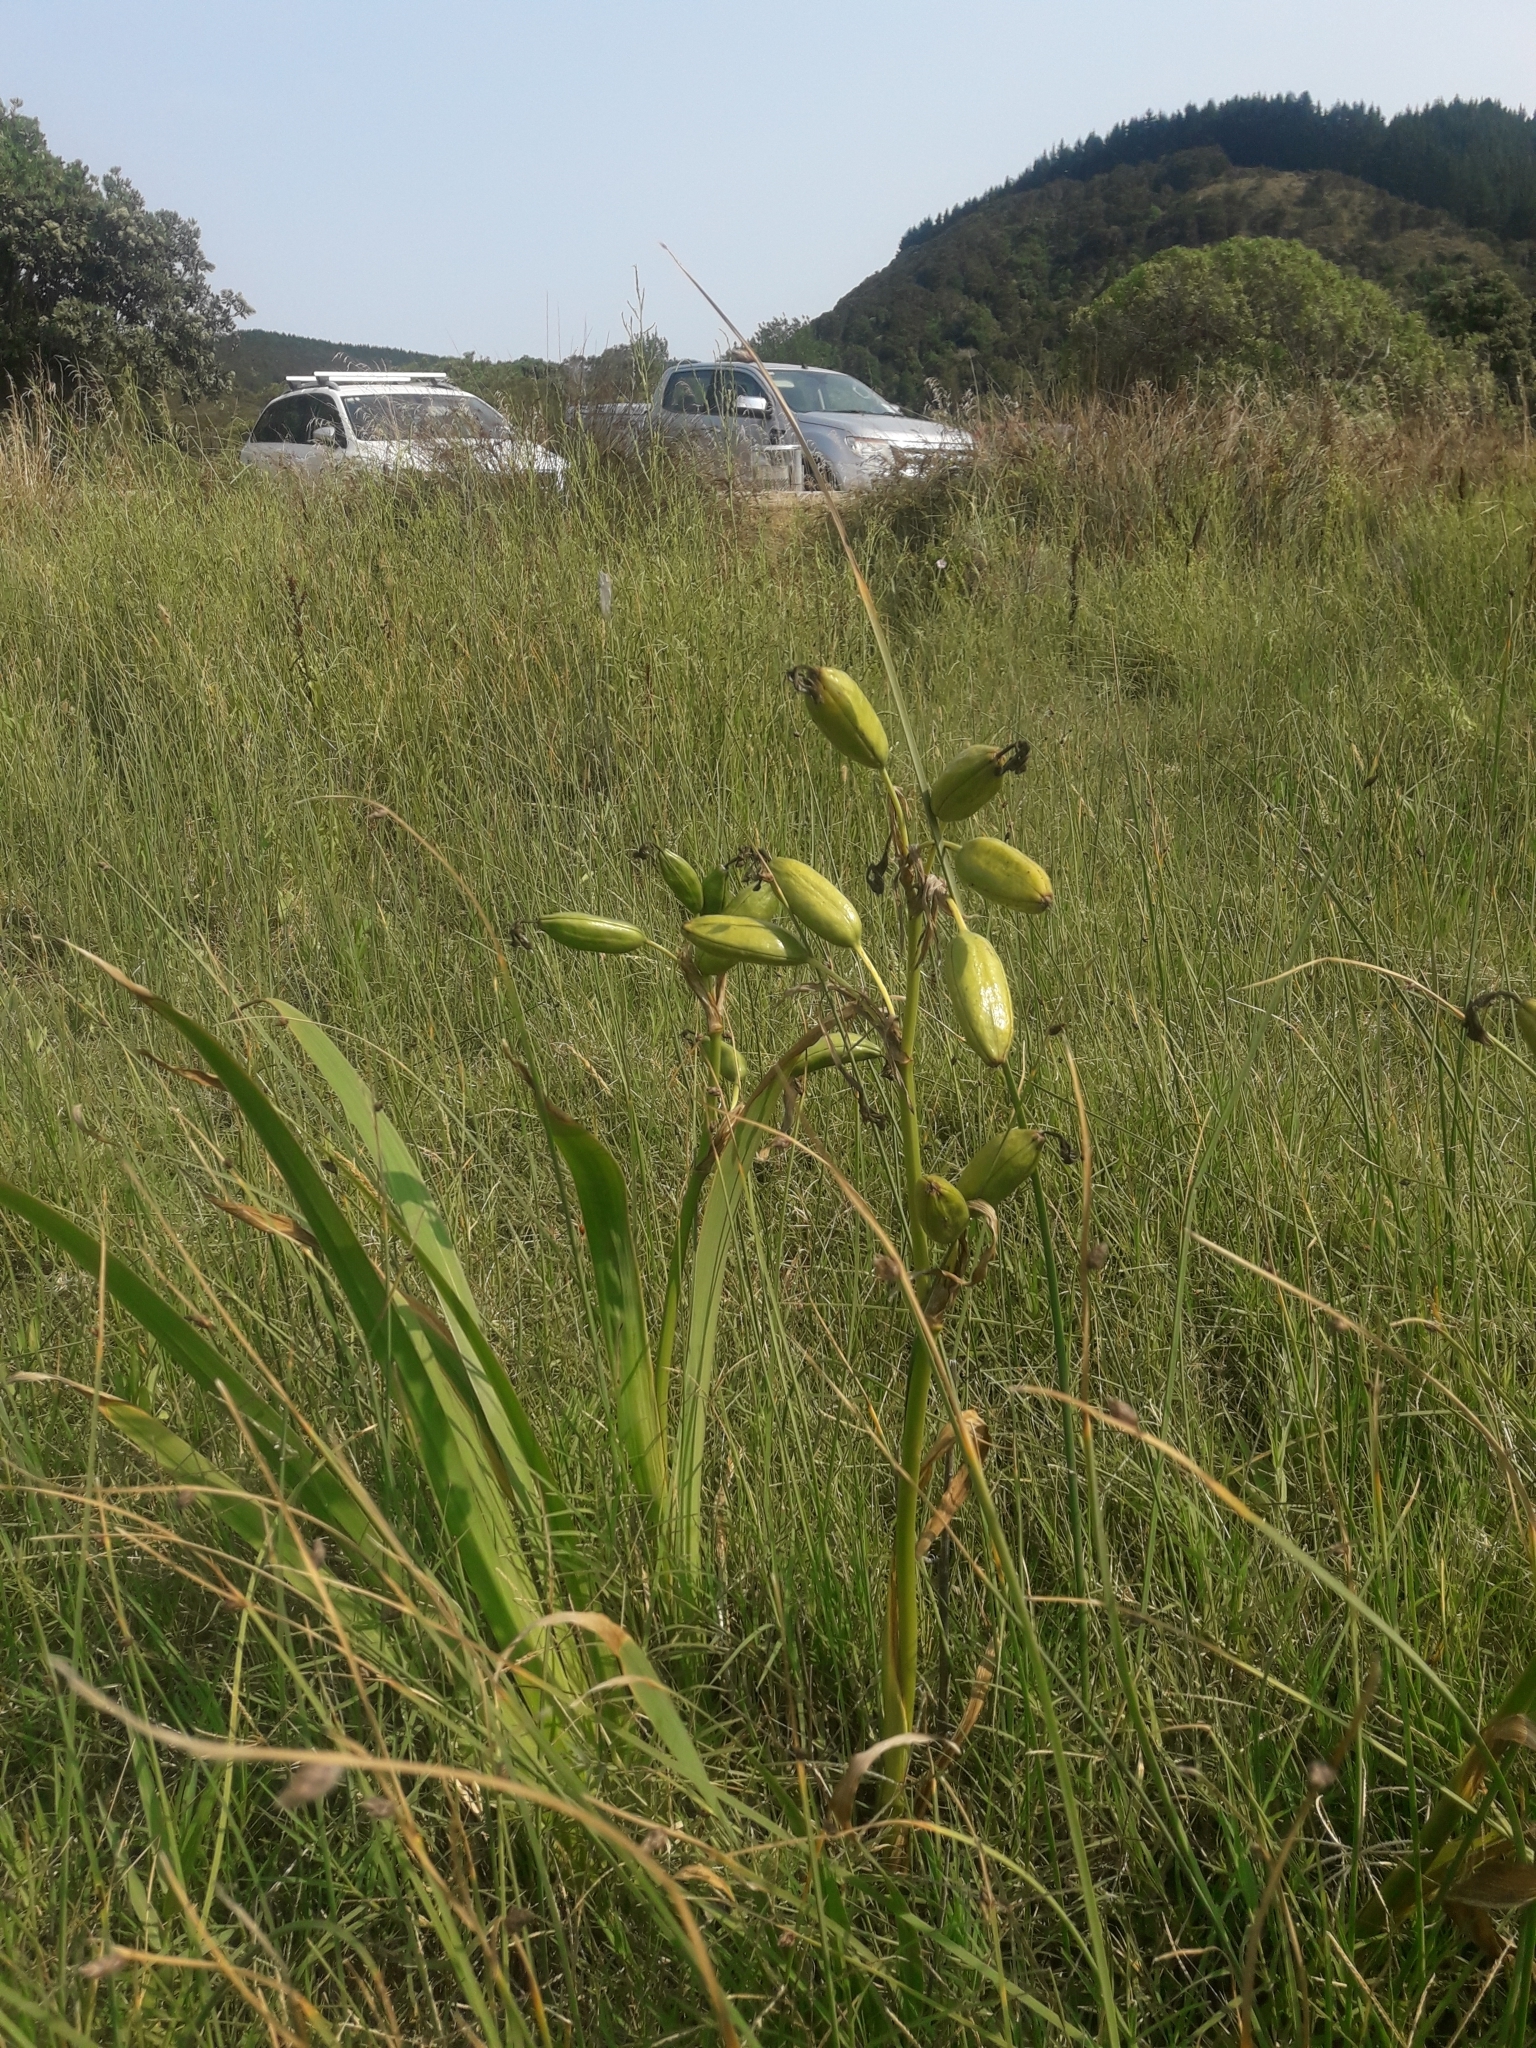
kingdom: Plantae
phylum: Tracheophyta
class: Liliopsida
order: Asparagales
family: Iridaceae
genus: Iris
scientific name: Iris pseudacorus
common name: Yellow flag
